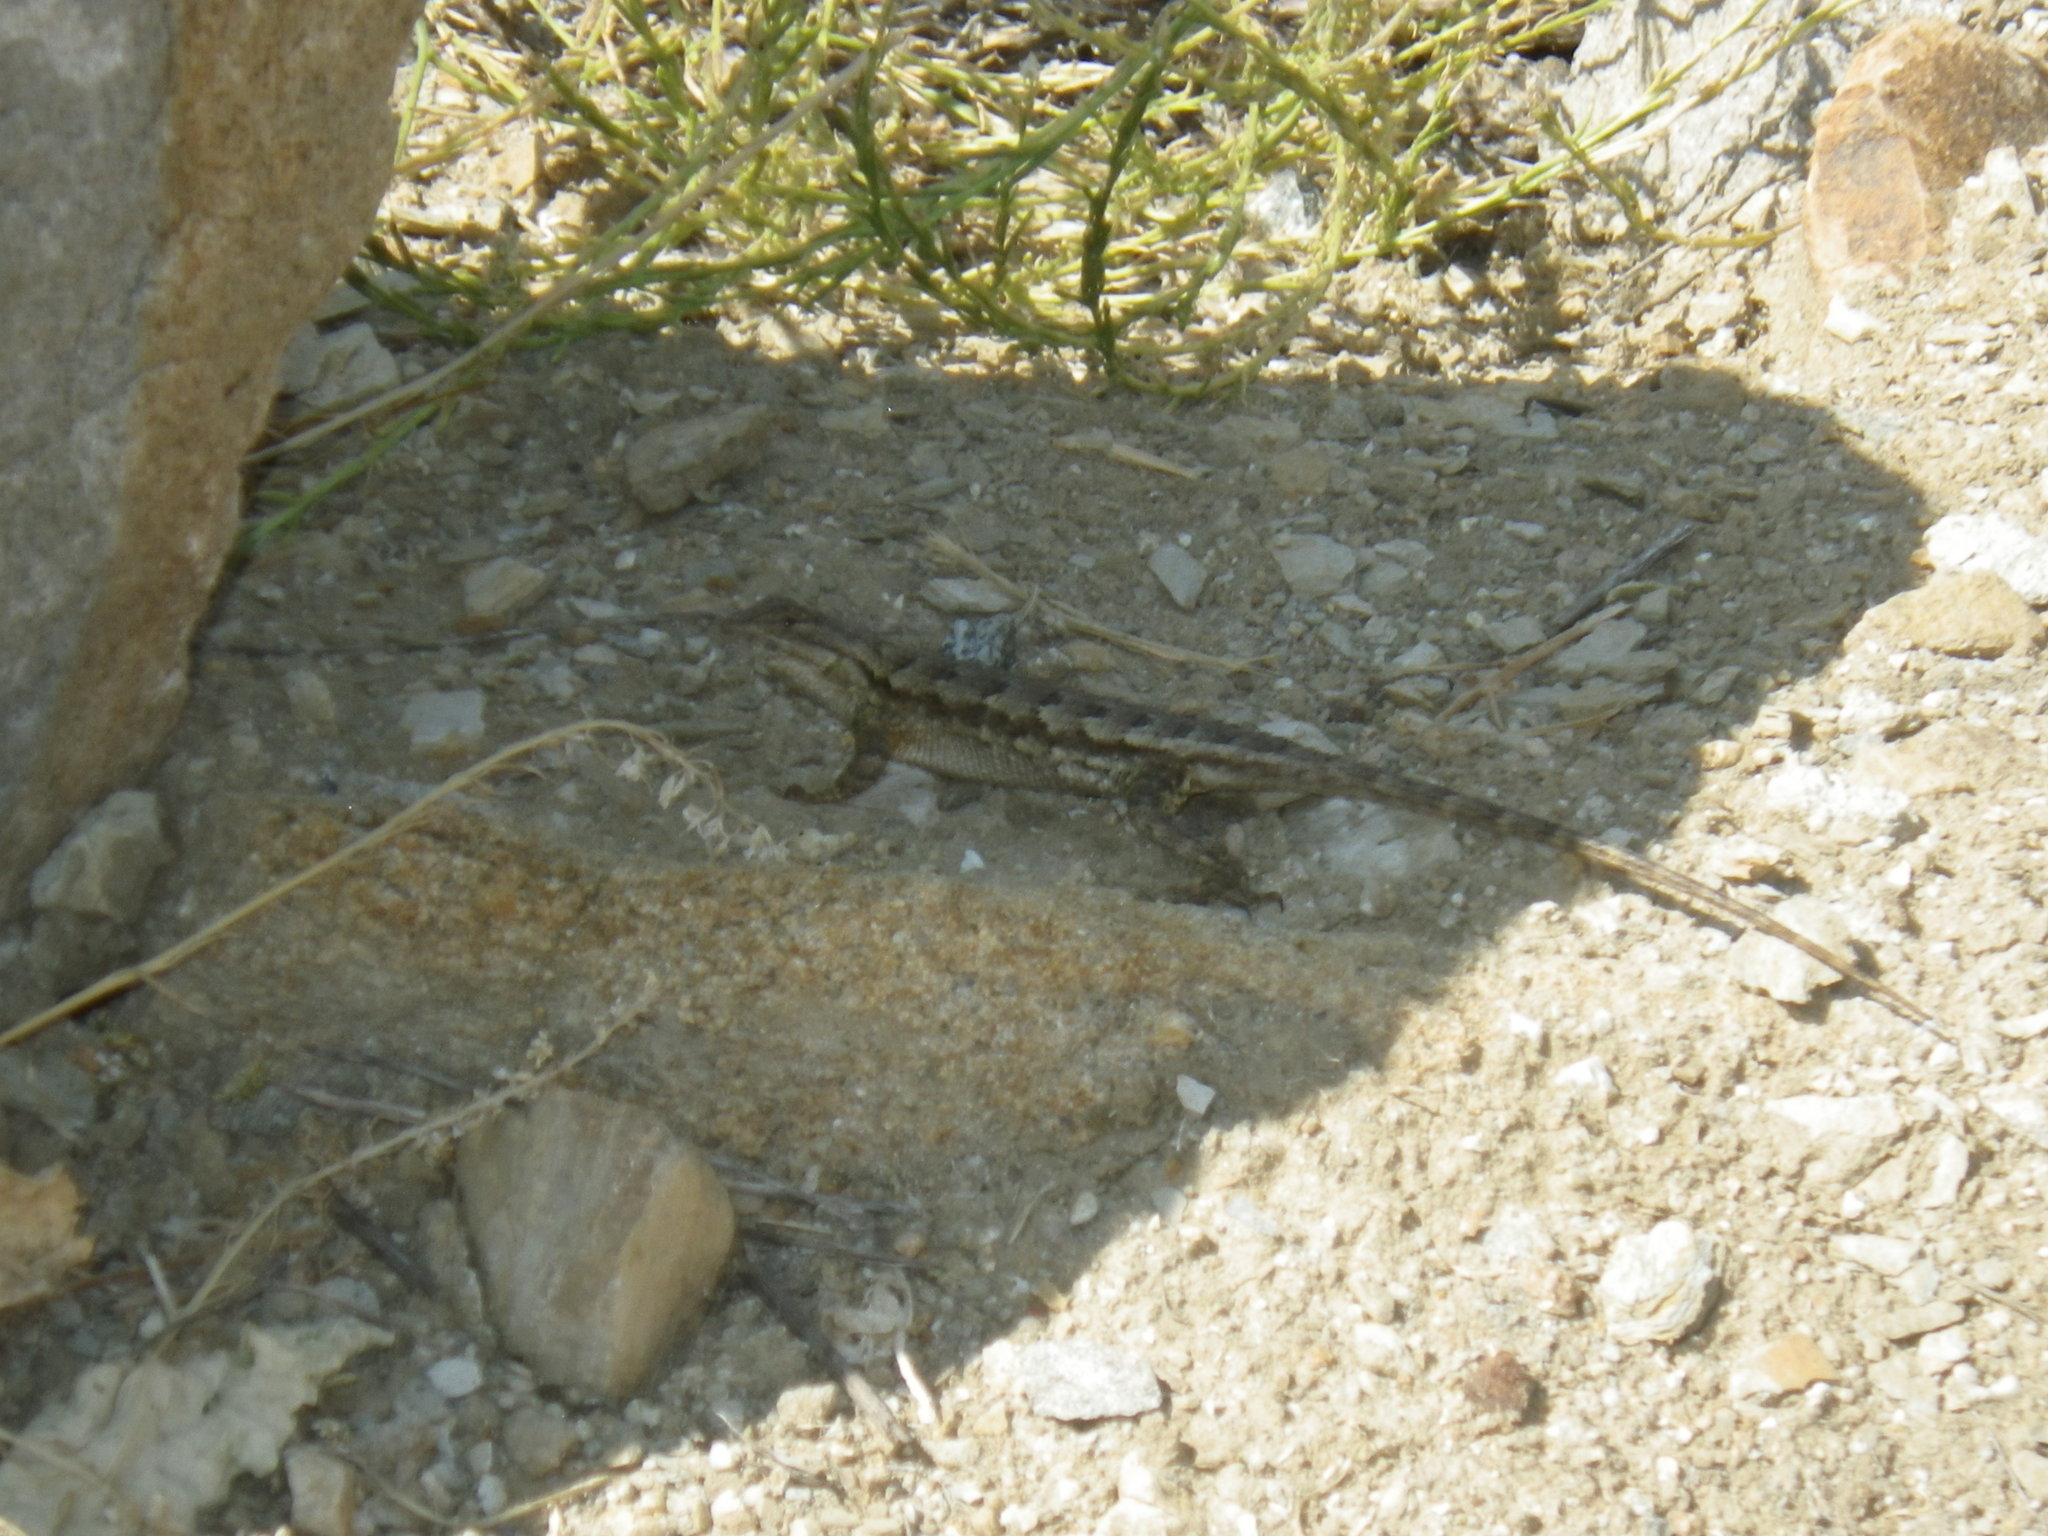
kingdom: Animalia
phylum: Chordata
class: Squamata
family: Phrynosomatidae
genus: Sceloporus
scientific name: Sceloporus occidentalis
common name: Western fence lizard
